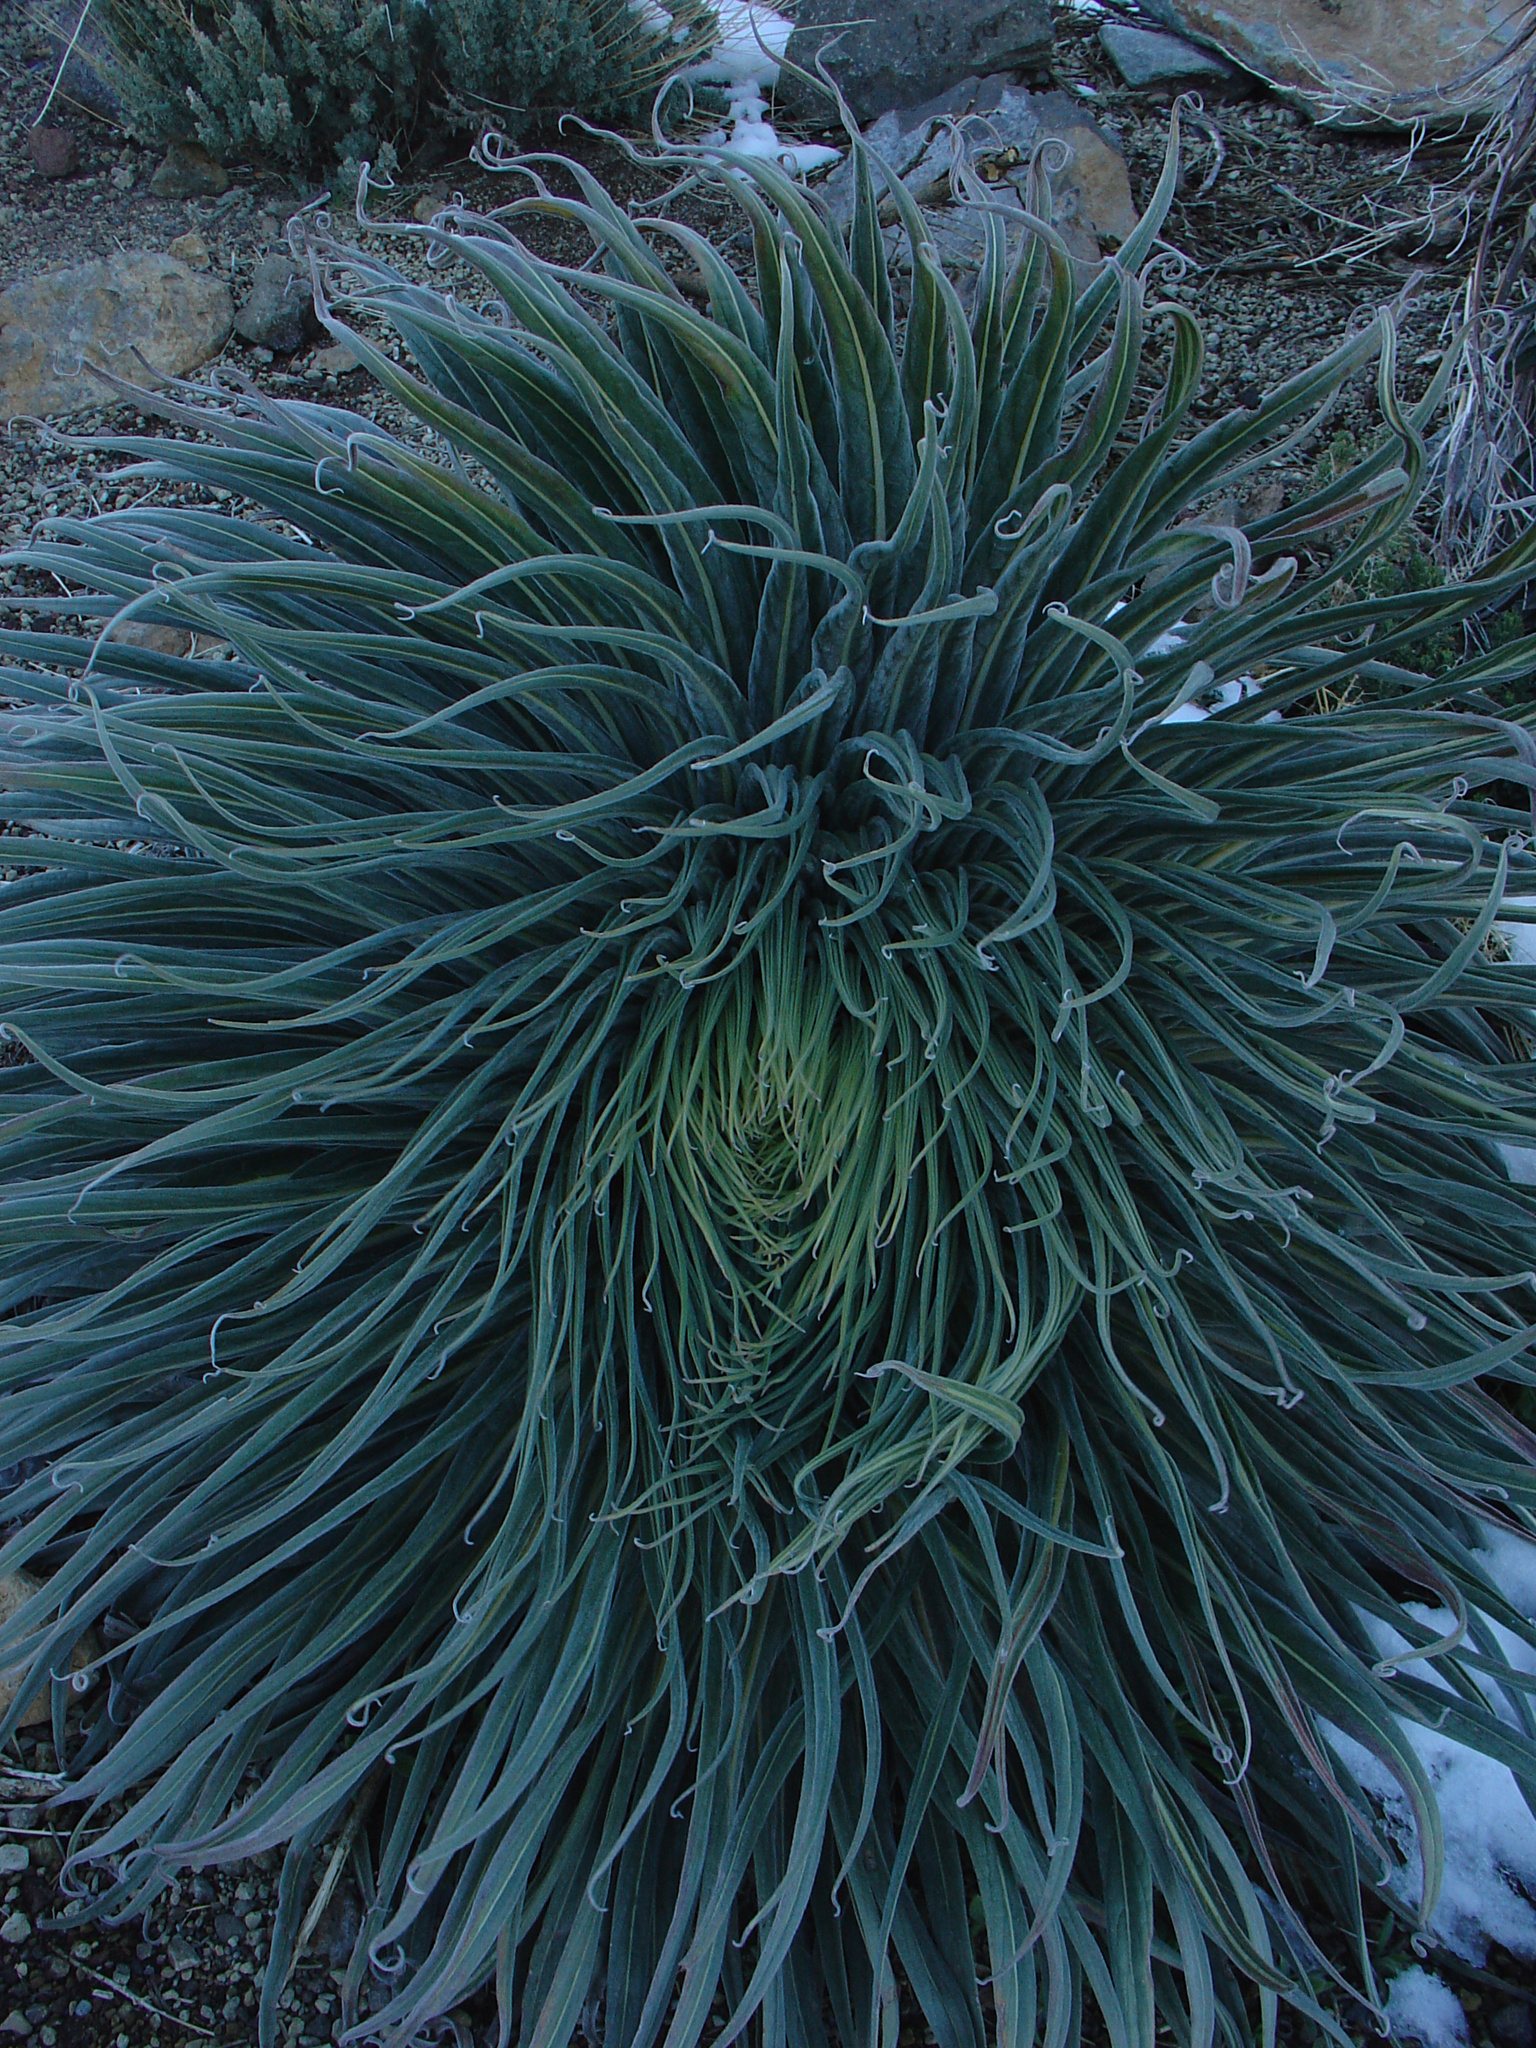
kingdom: Plantae
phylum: Tracheophyta
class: Magnoliopsida
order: Boraginales
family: Boraginaceae
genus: Echium
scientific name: Echium wildpretii
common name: Tower-of-jewels
